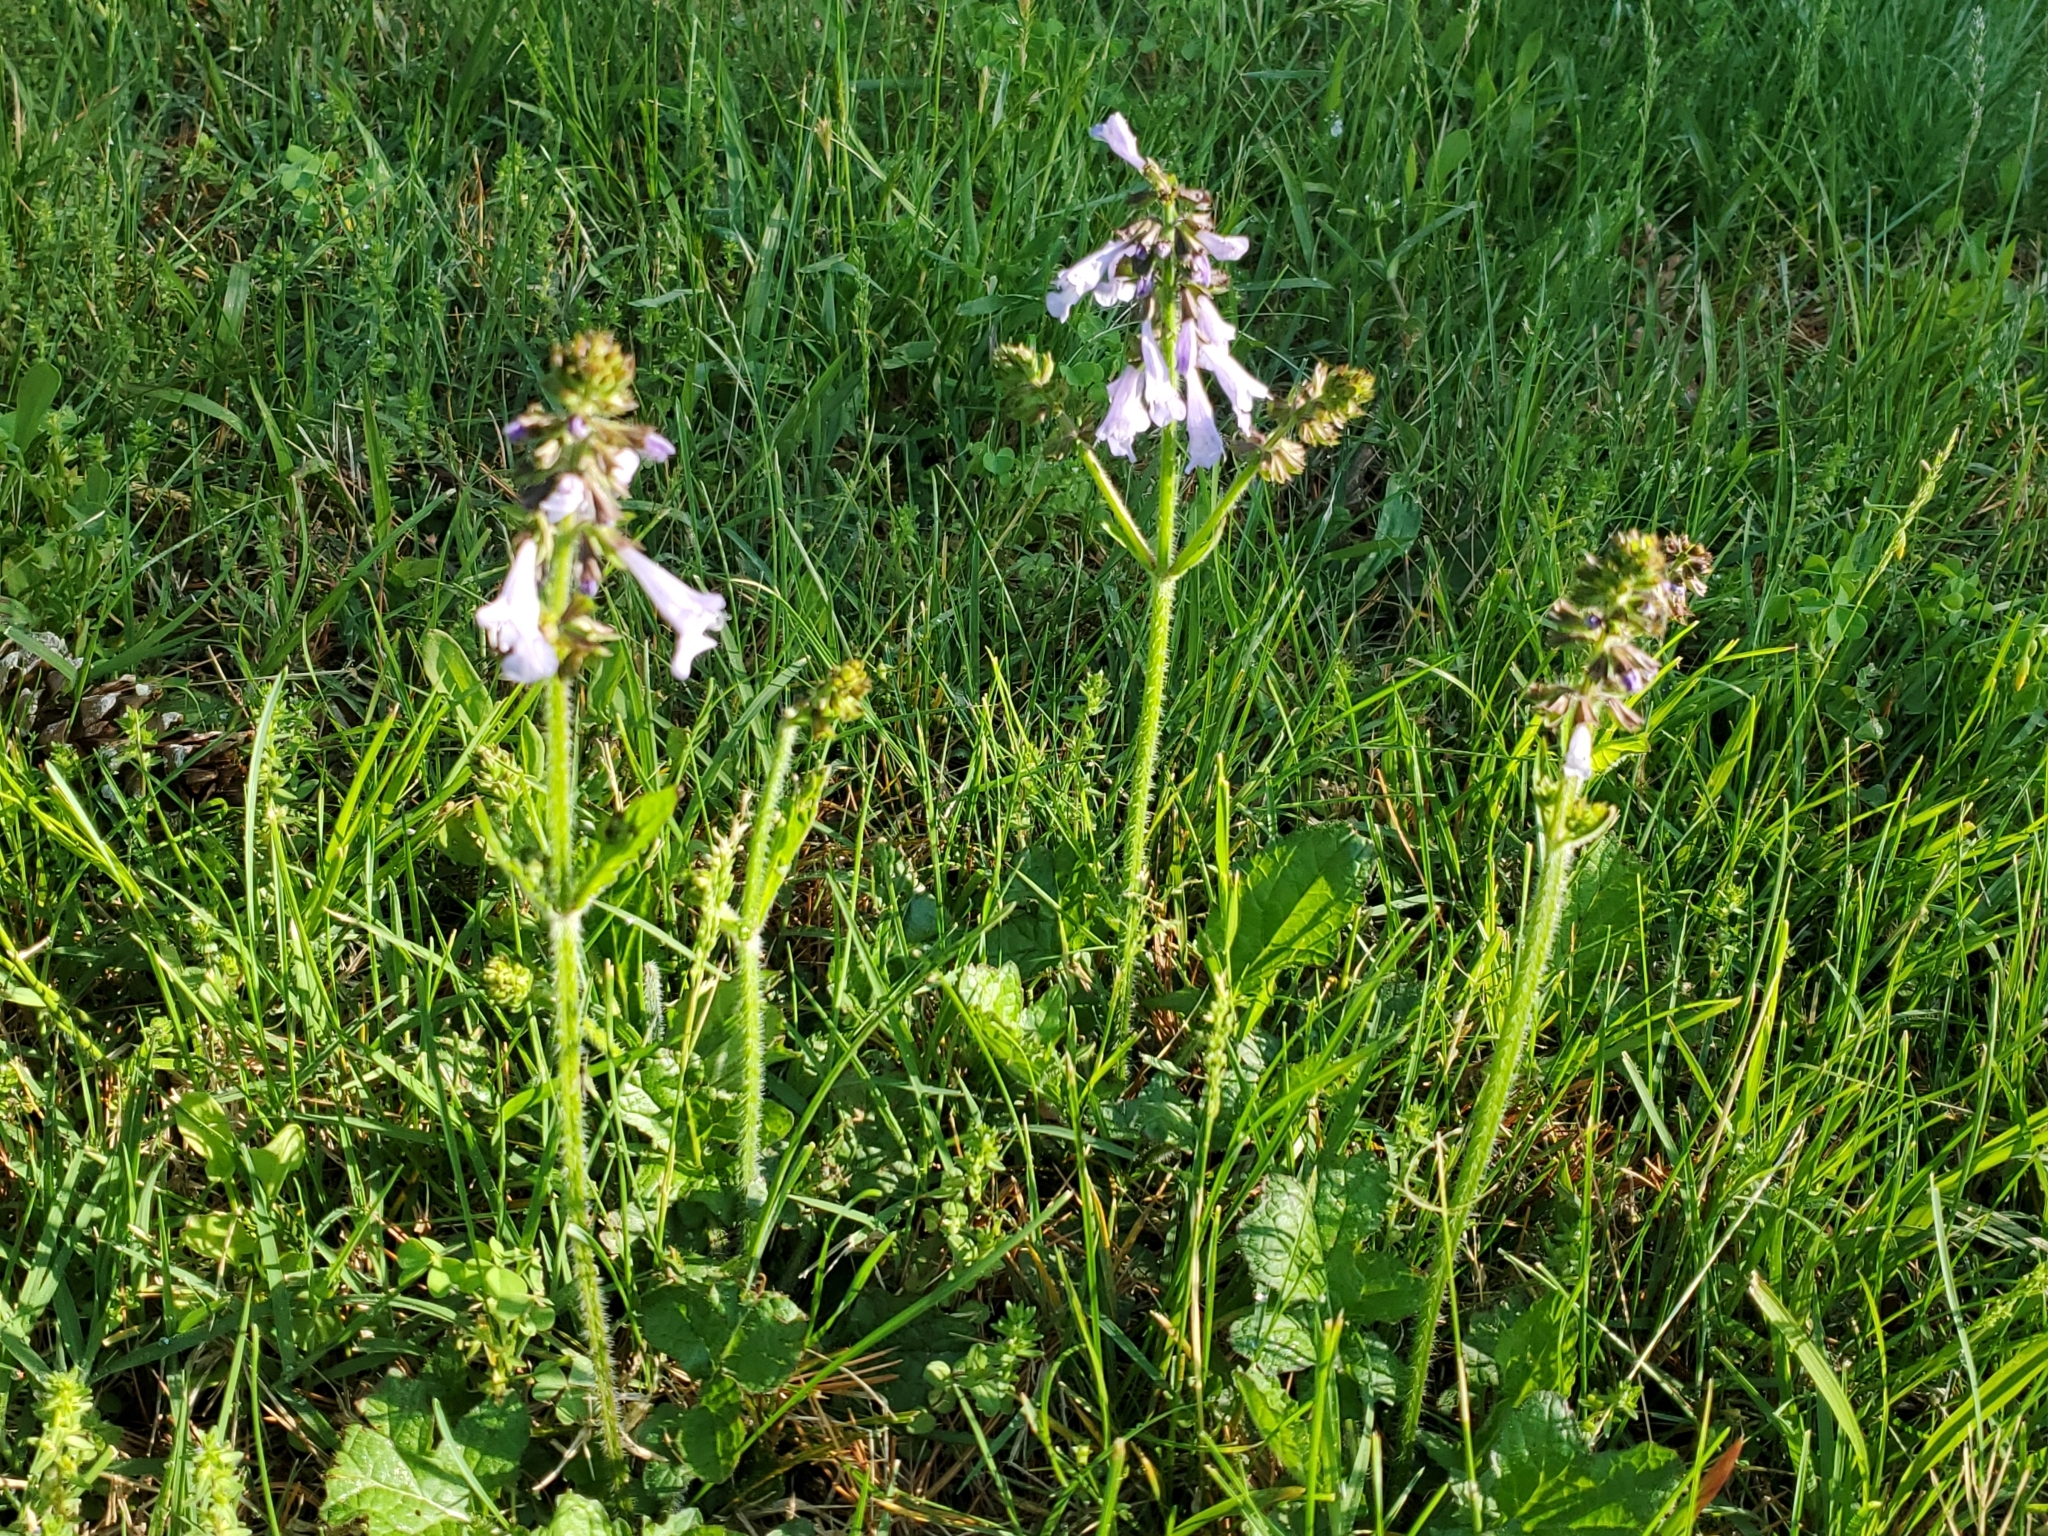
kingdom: Plantae
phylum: Tracheophyta
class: Magnoliopsida
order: Lamiales
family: Lamiaceae
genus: Salvia
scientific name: Salvia lyrata
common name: Cancerweed
